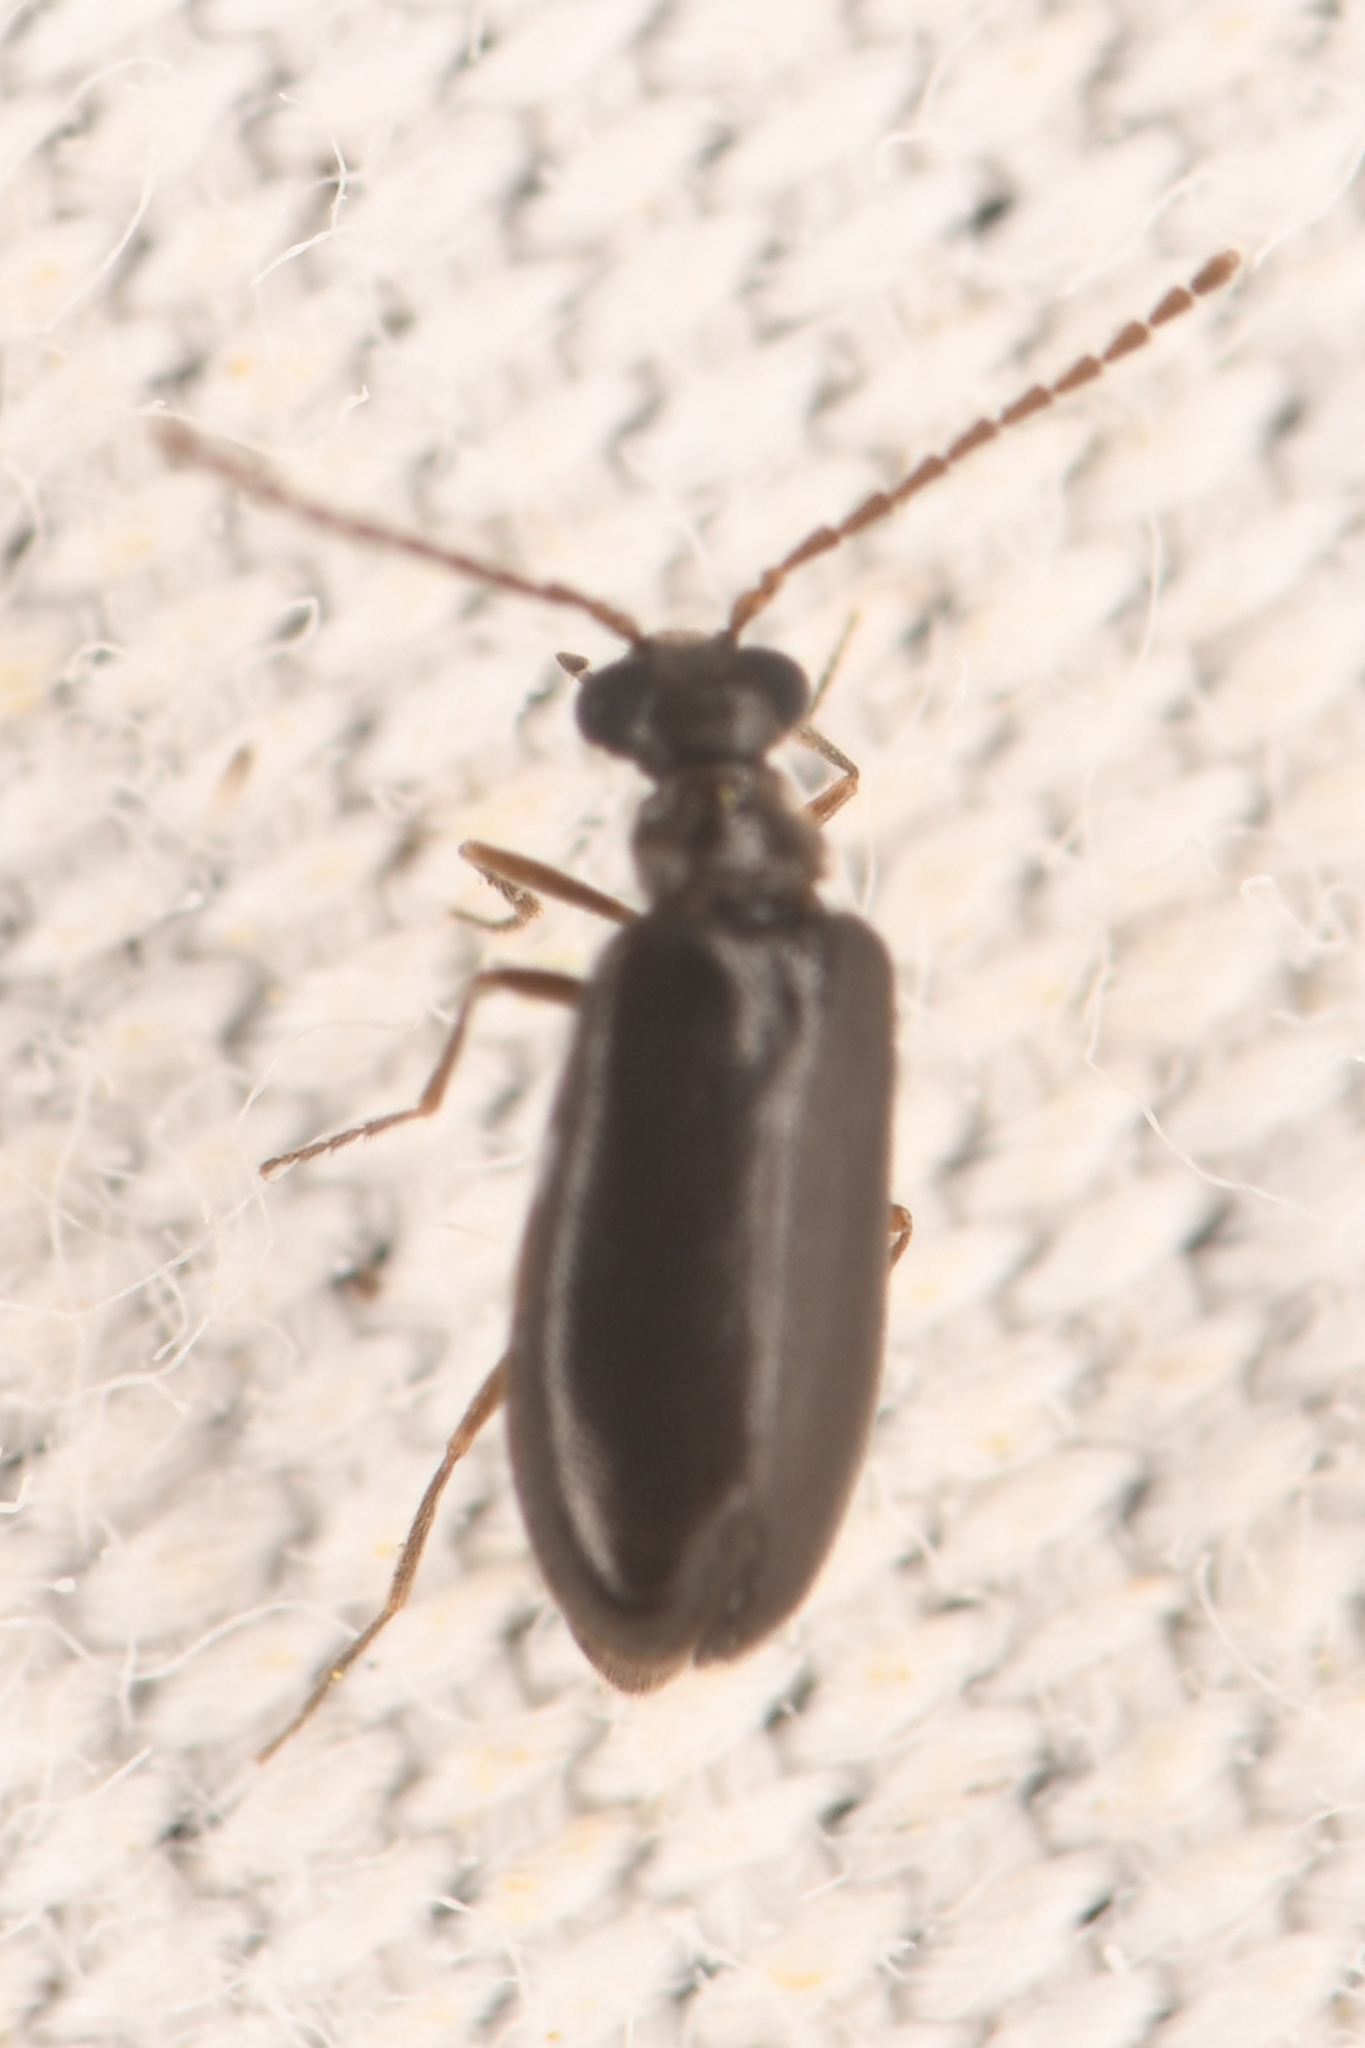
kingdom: Animalia
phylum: Arthropoda
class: Insecta
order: Coleoptera
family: Aderidae
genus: Cedraderus
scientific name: Cedraderus
